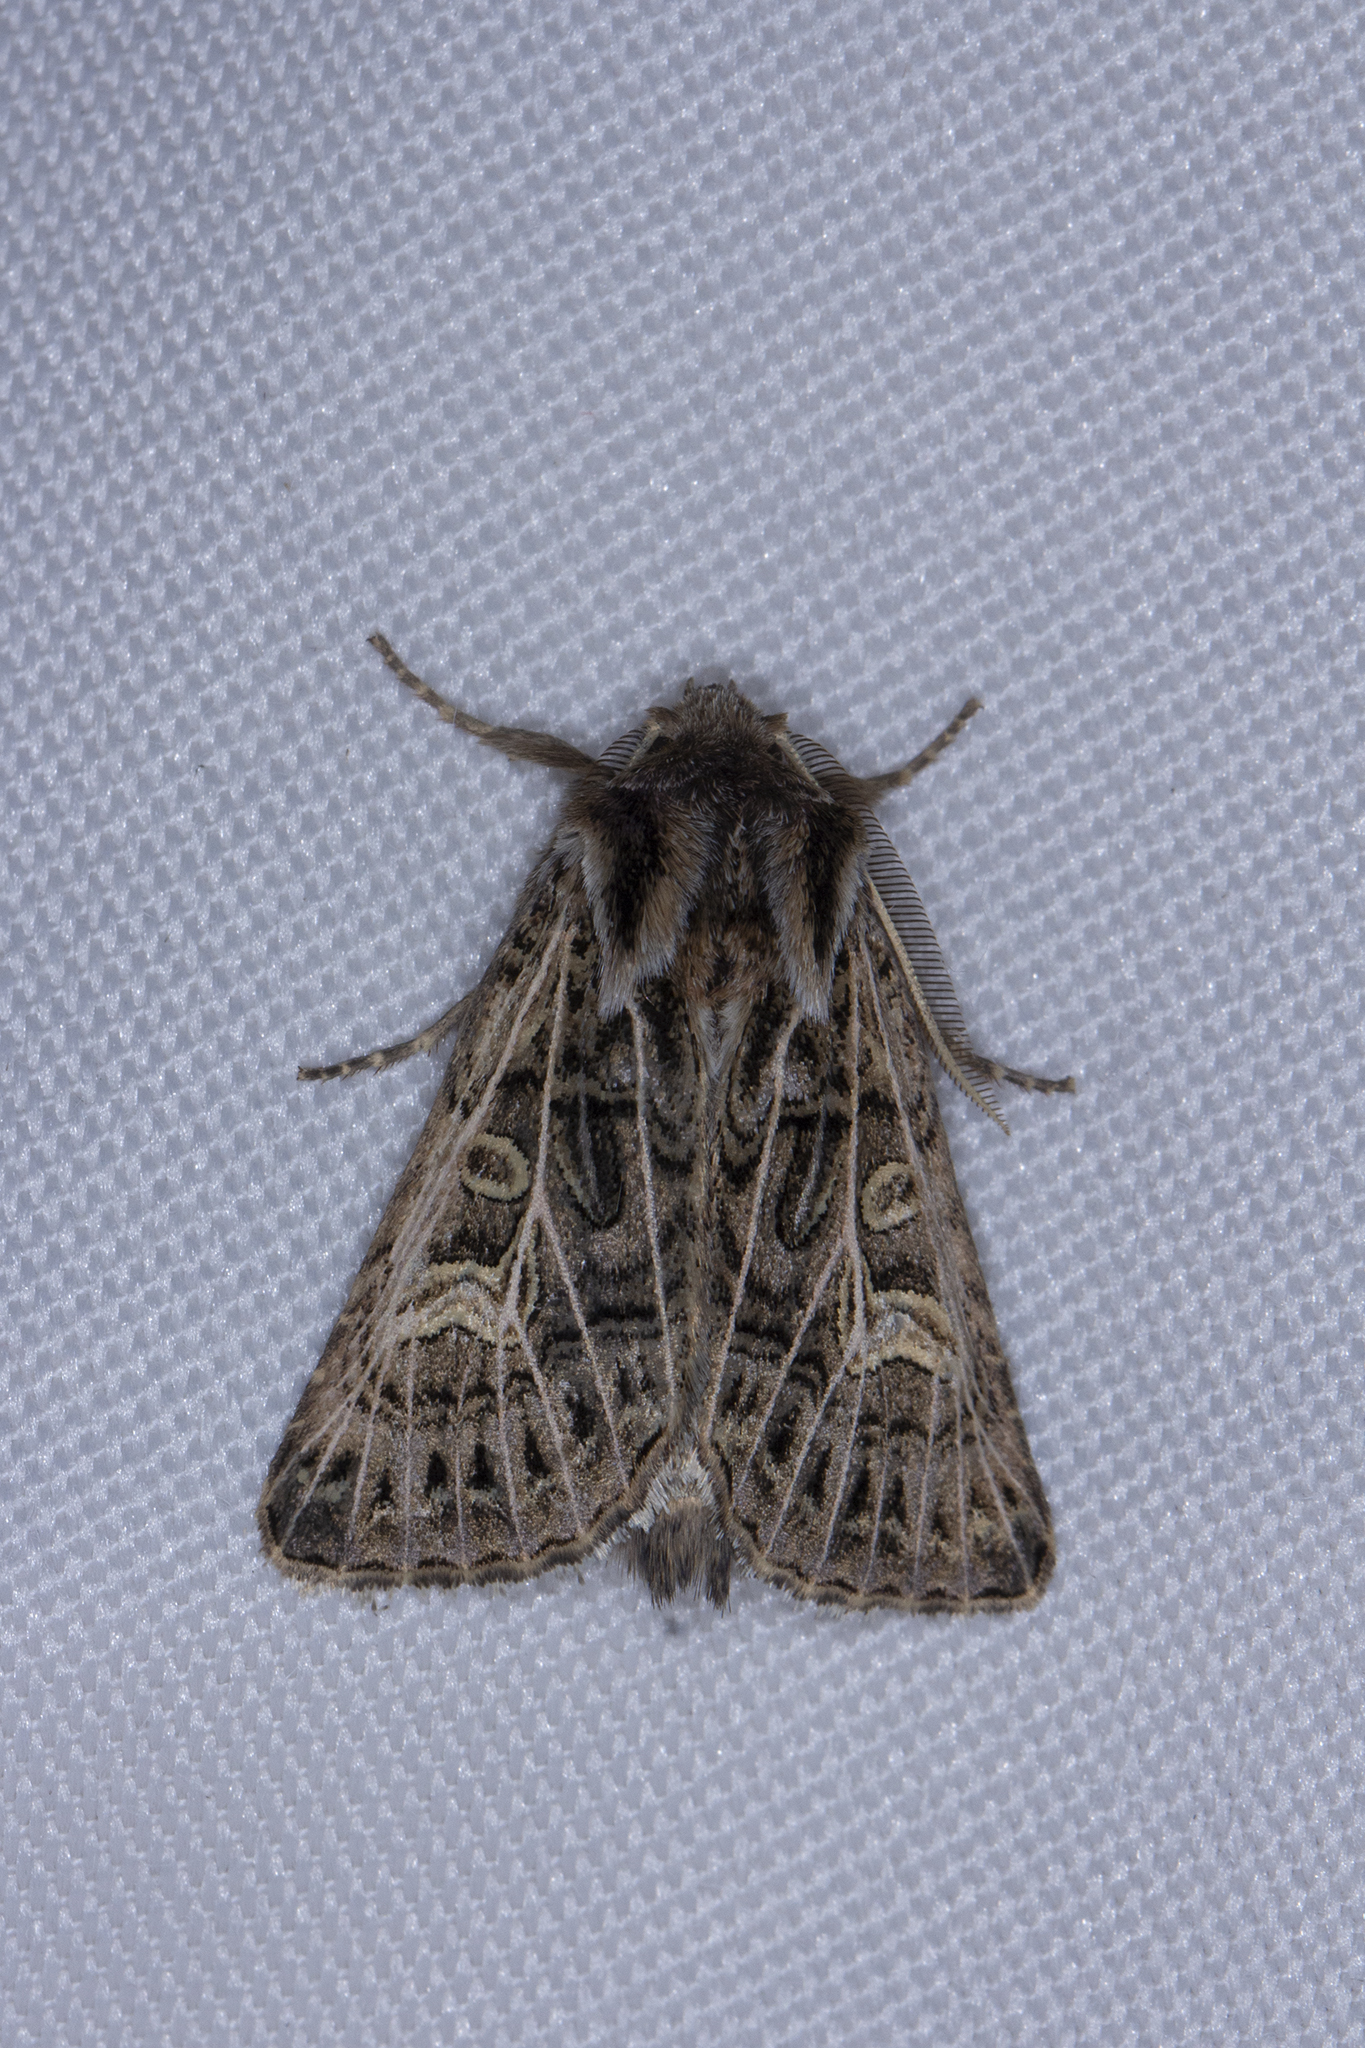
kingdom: Animalia
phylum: Arthropoda
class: Insecta
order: Lepidoptera
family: Noctuidae
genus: Tholera
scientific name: Tholera decimalis
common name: Feathered gothic
